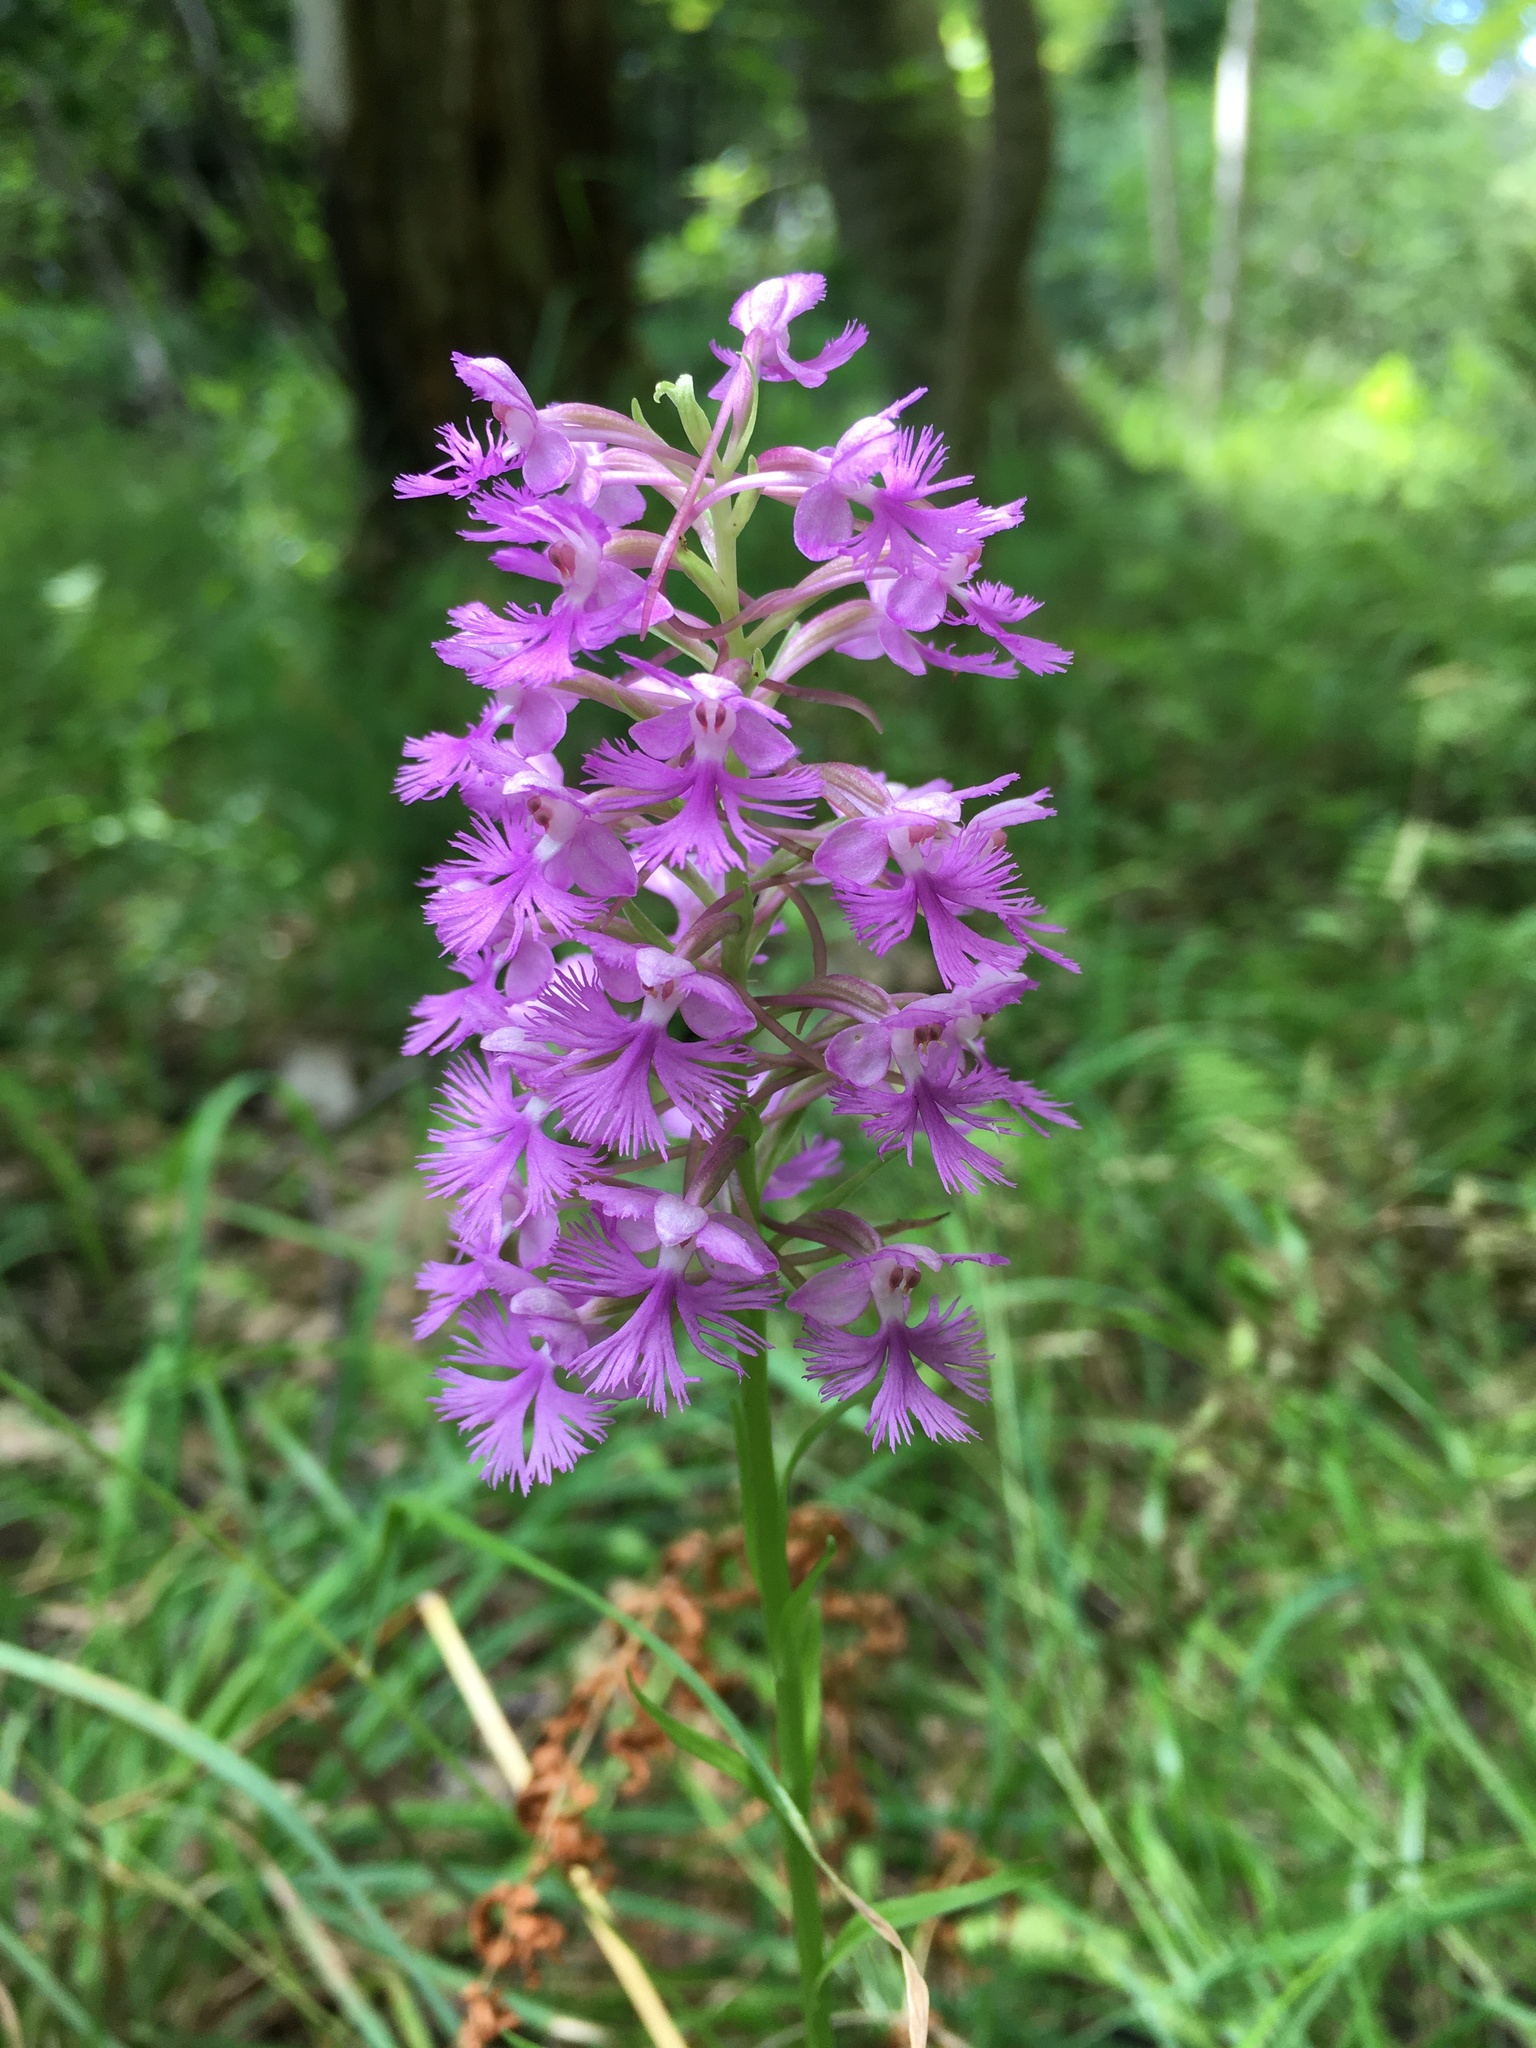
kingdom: Plantae
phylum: Tracheophyta
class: Liliopsida
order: Asparagales
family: Orchidaceae
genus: Platanthera
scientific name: Platanthera psycodes
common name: Lesser purple fringed orchid
